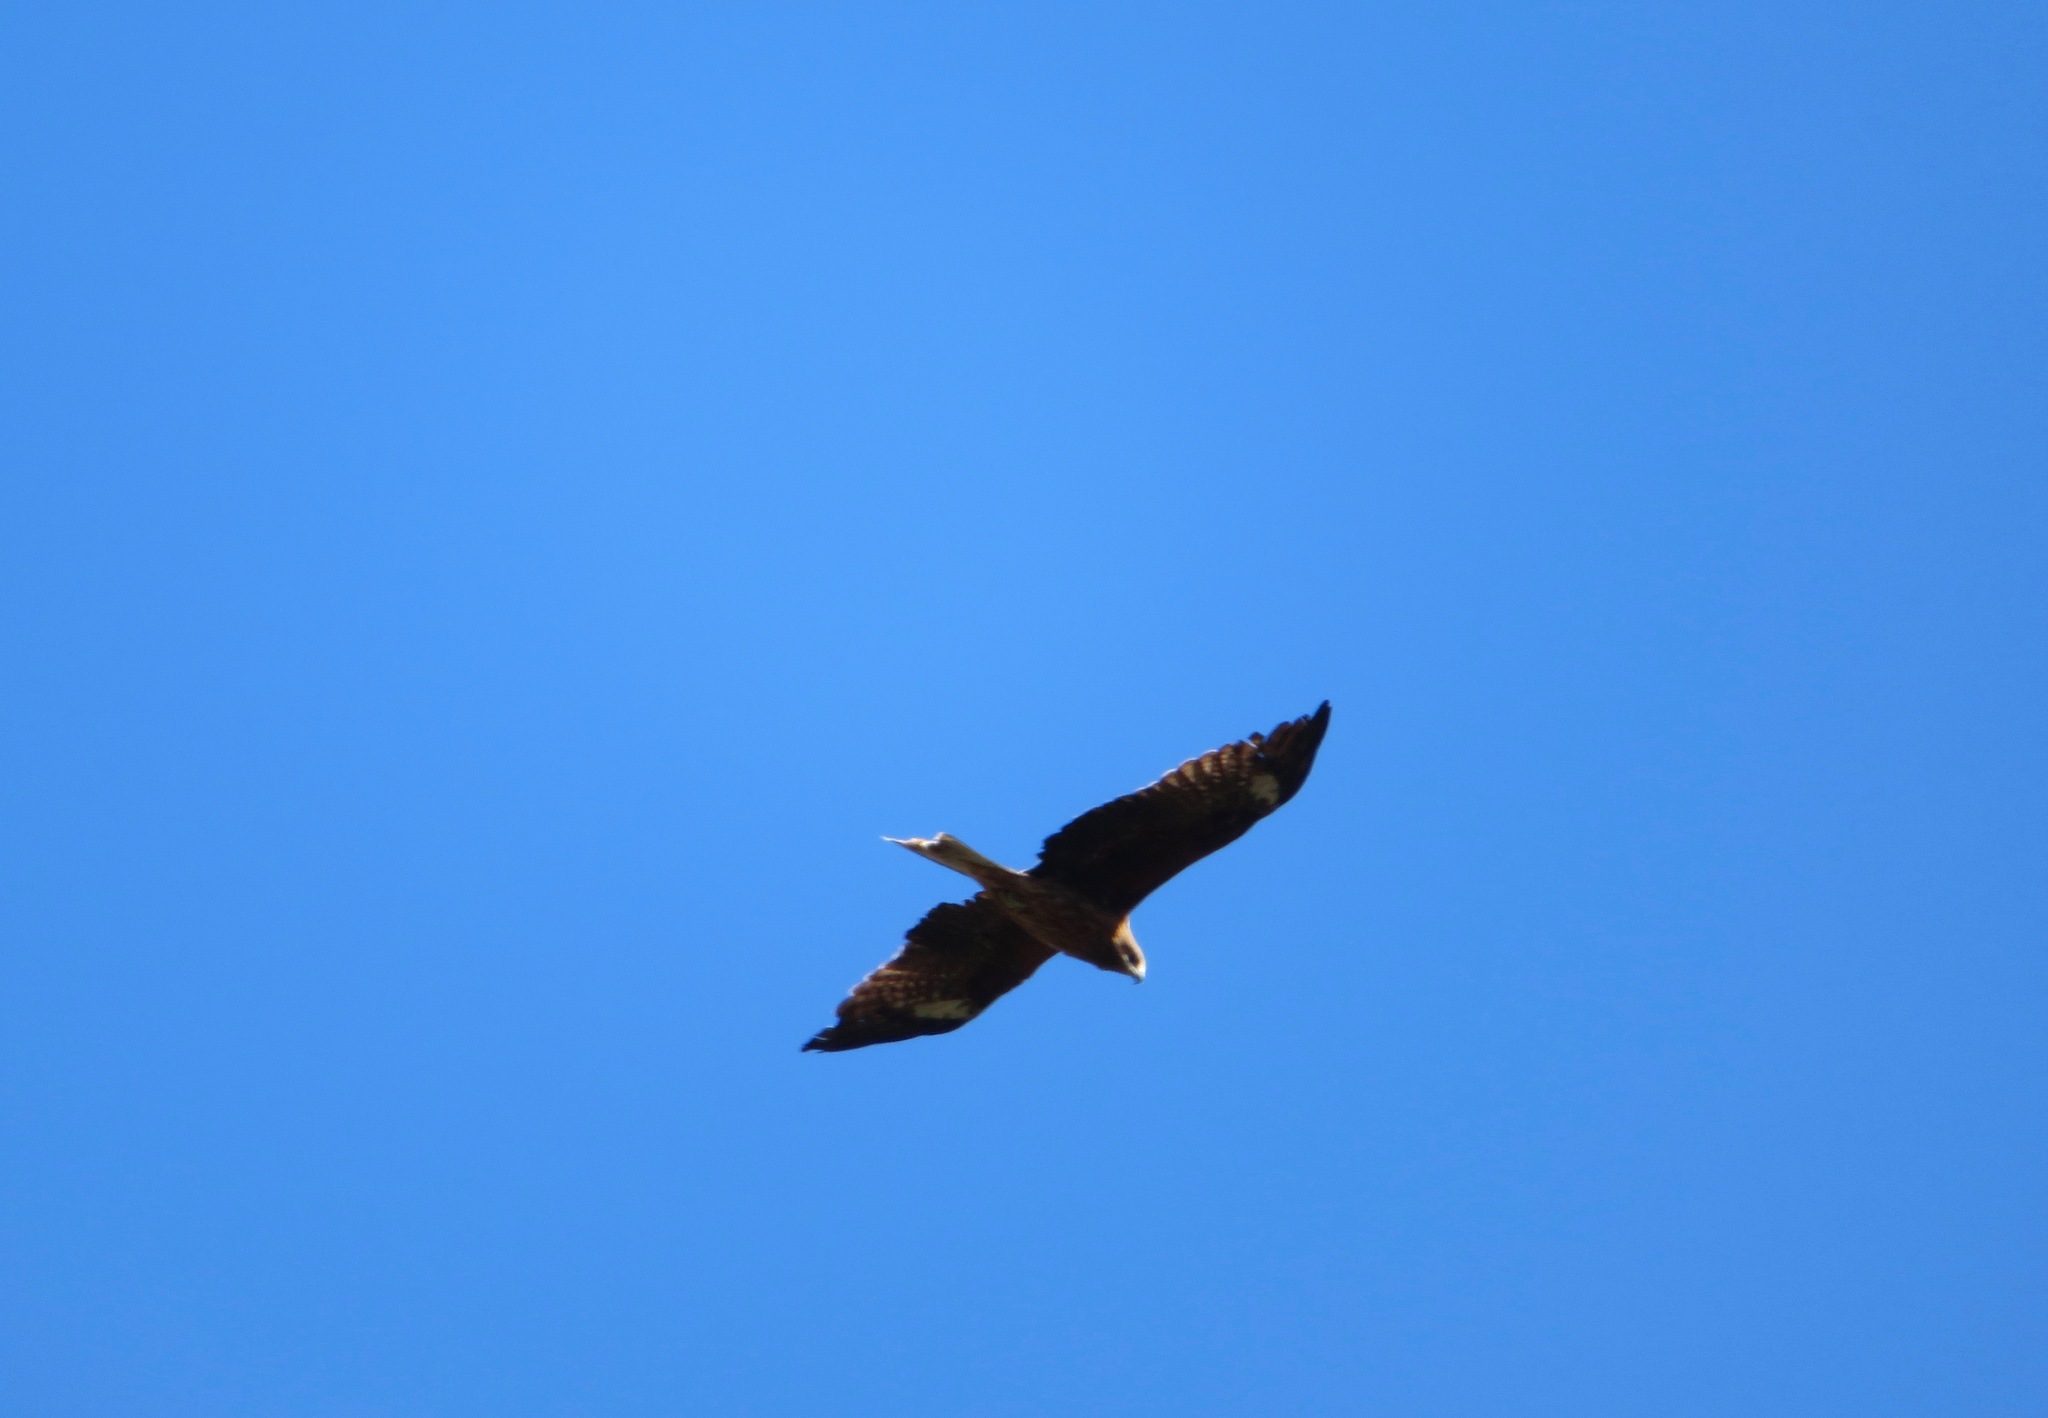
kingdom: Animalia
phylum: Chordata
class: Aves
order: Accipitriformes
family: Accipitridae
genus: Milvus
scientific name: Milvus migrans
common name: Black kite
